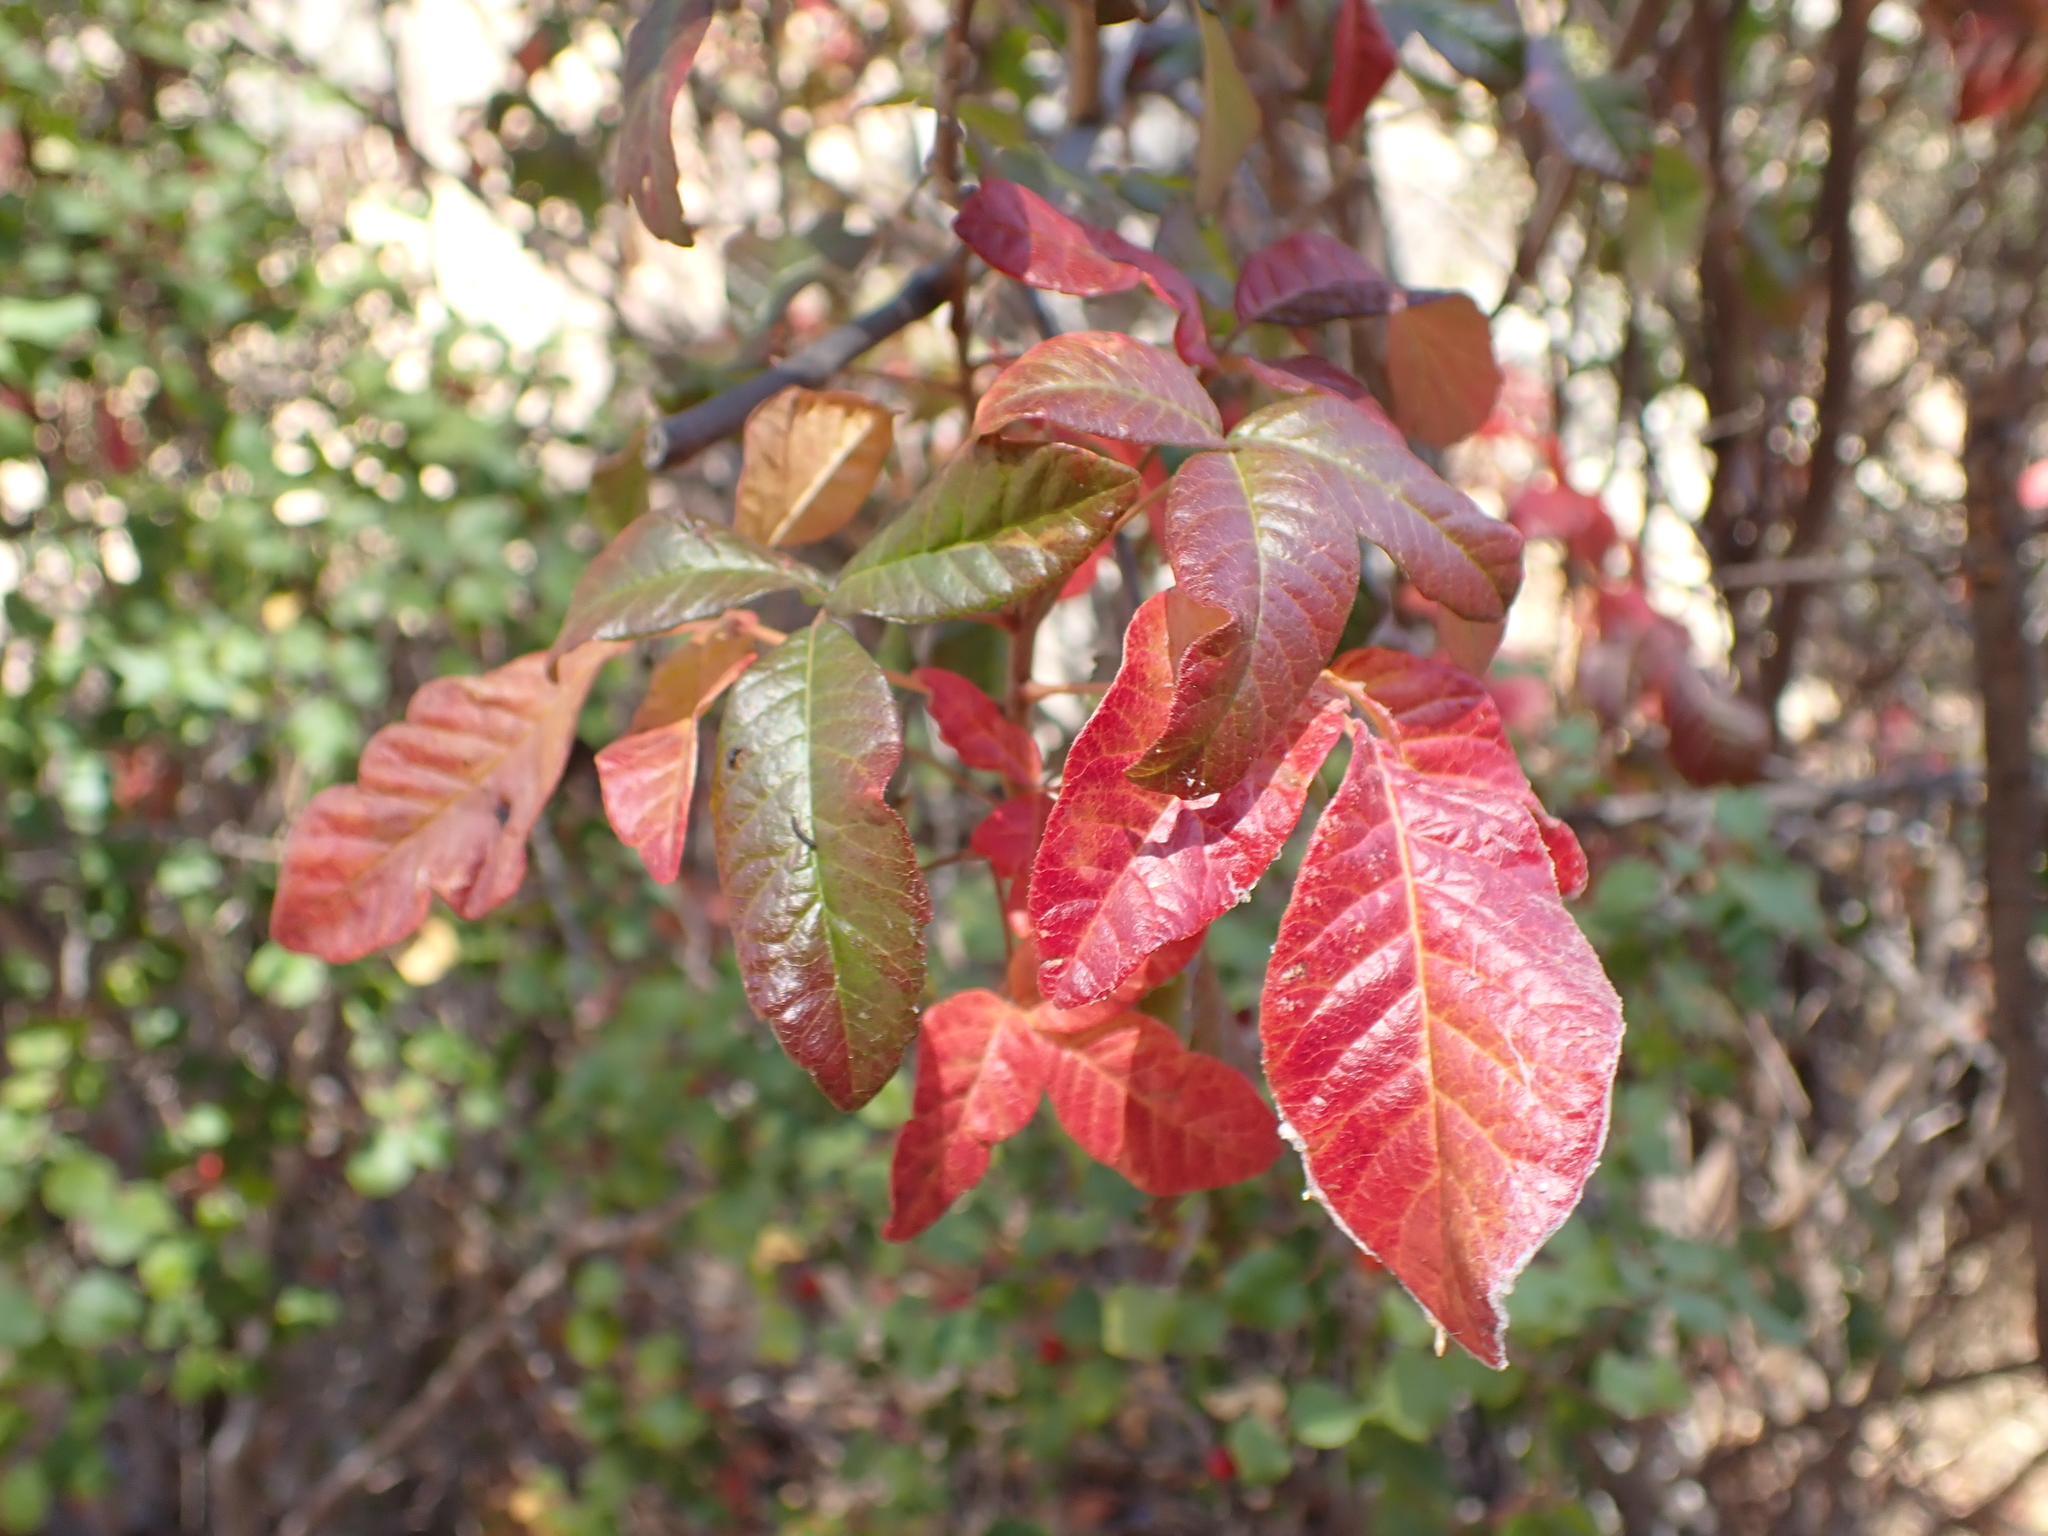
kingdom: Plantae
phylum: Tracheophyta
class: Magnoliopsida
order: Sapindales
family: Anacardiaceae
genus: Toxicodendron
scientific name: Toxicodendron diversilobum
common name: Pacific poison-oak
